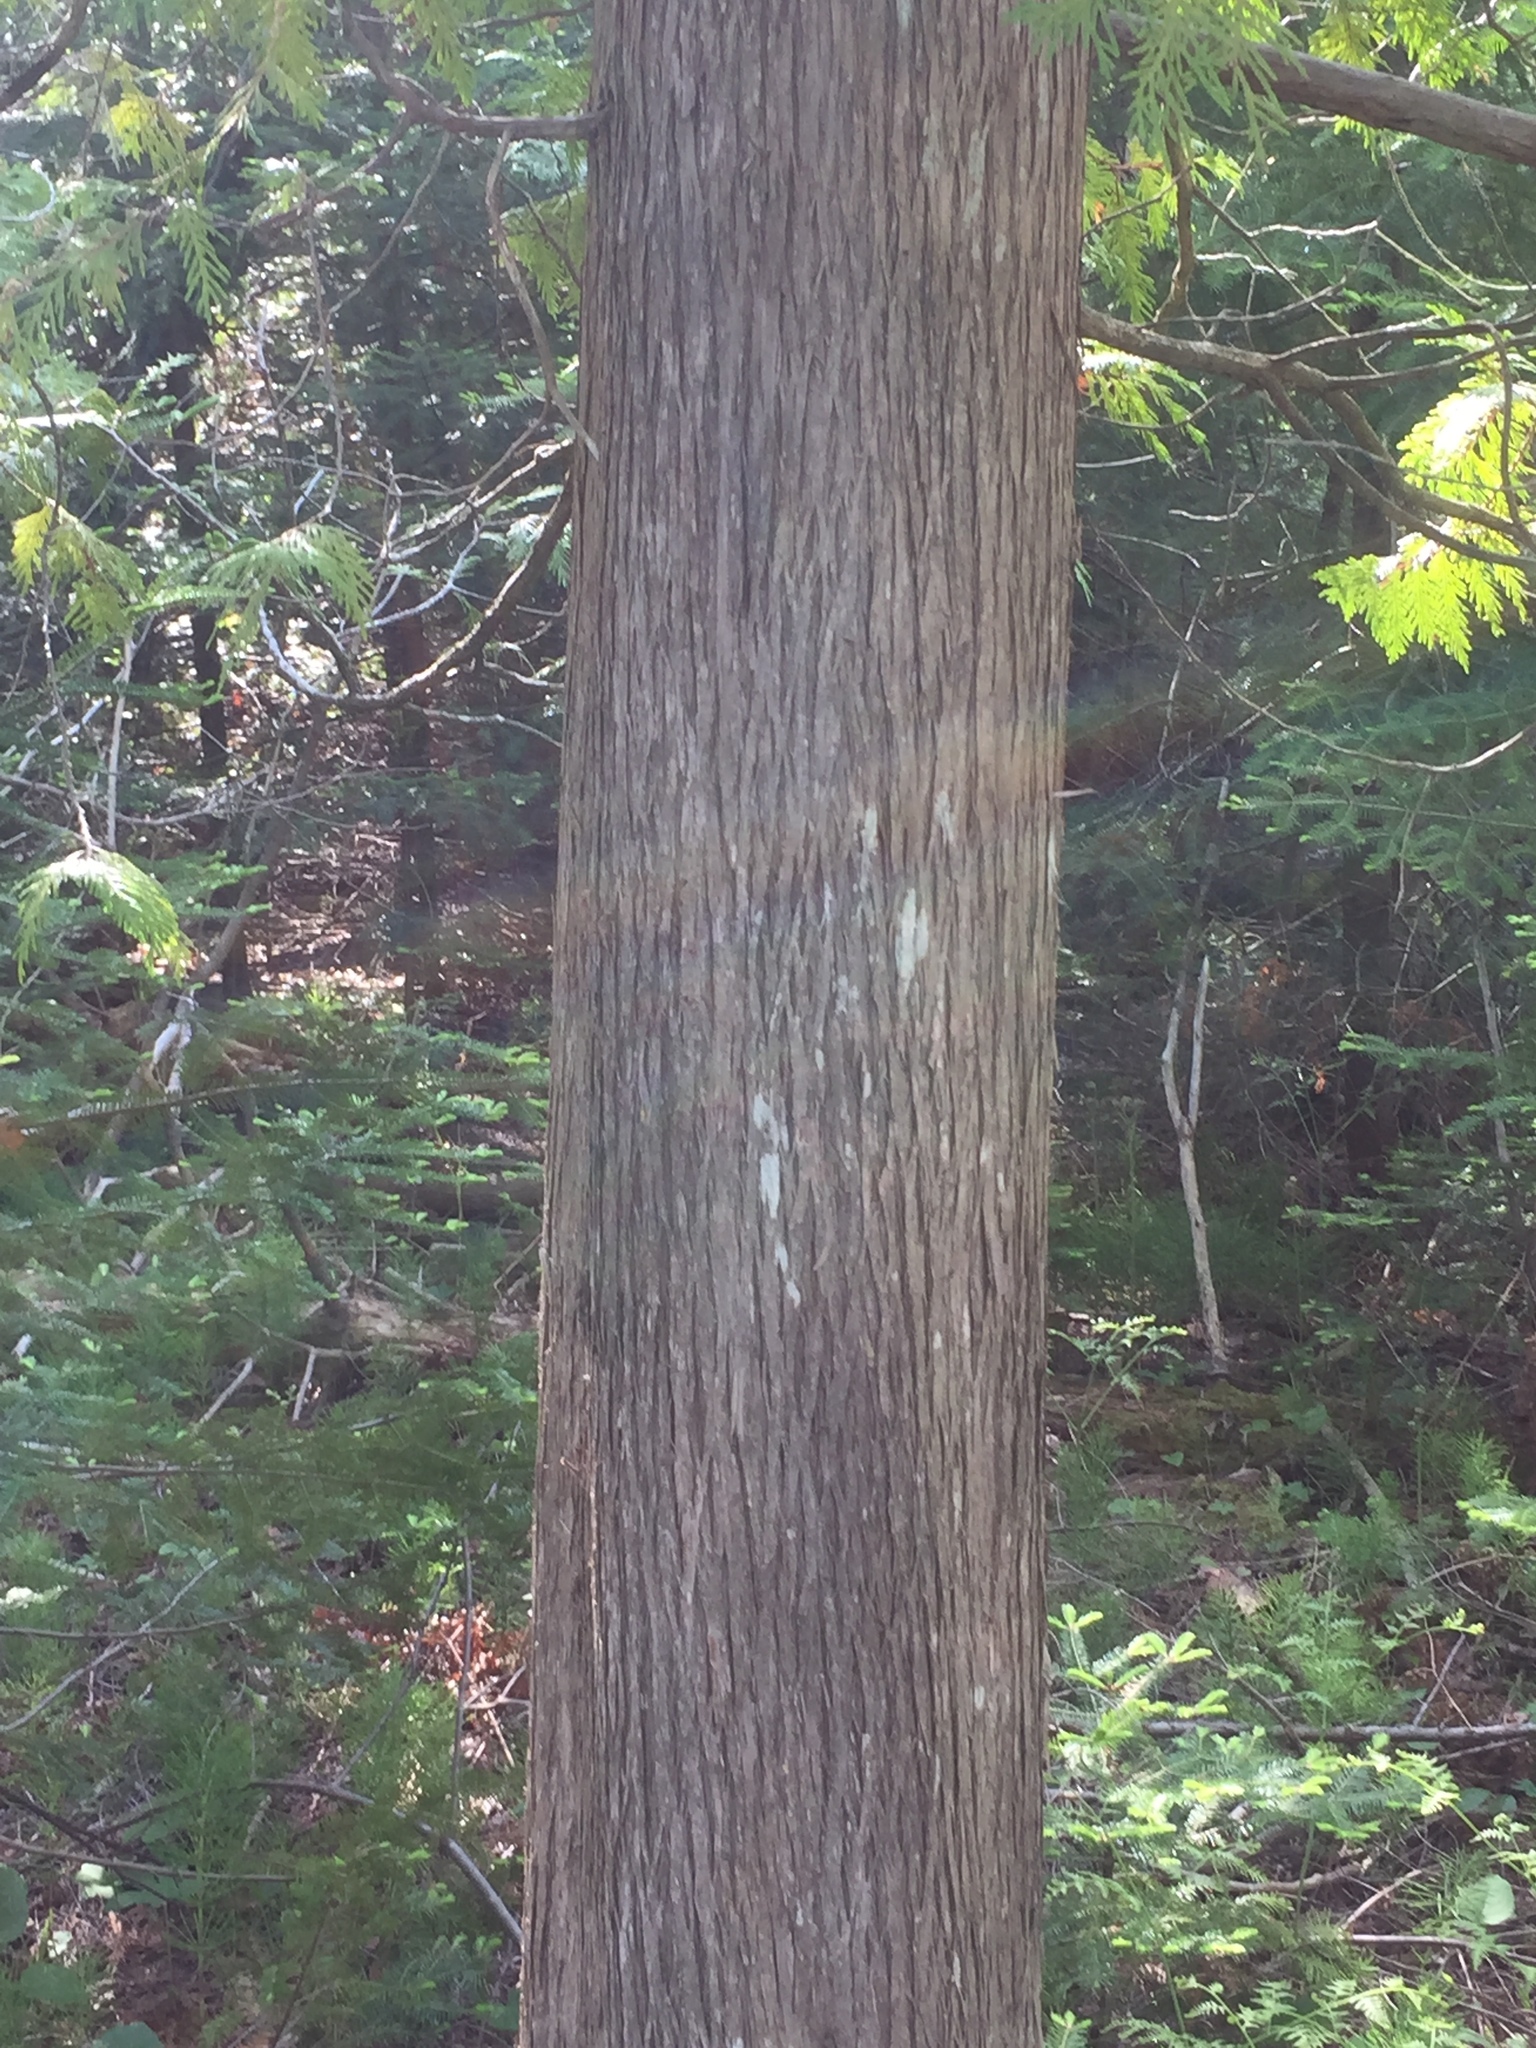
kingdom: Plantae
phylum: Tracheophyta
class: Pinopsida
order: Pinales
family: Cupressaceae
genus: Thuja
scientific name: Thuja occidentalis
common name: Northern white-cedar
